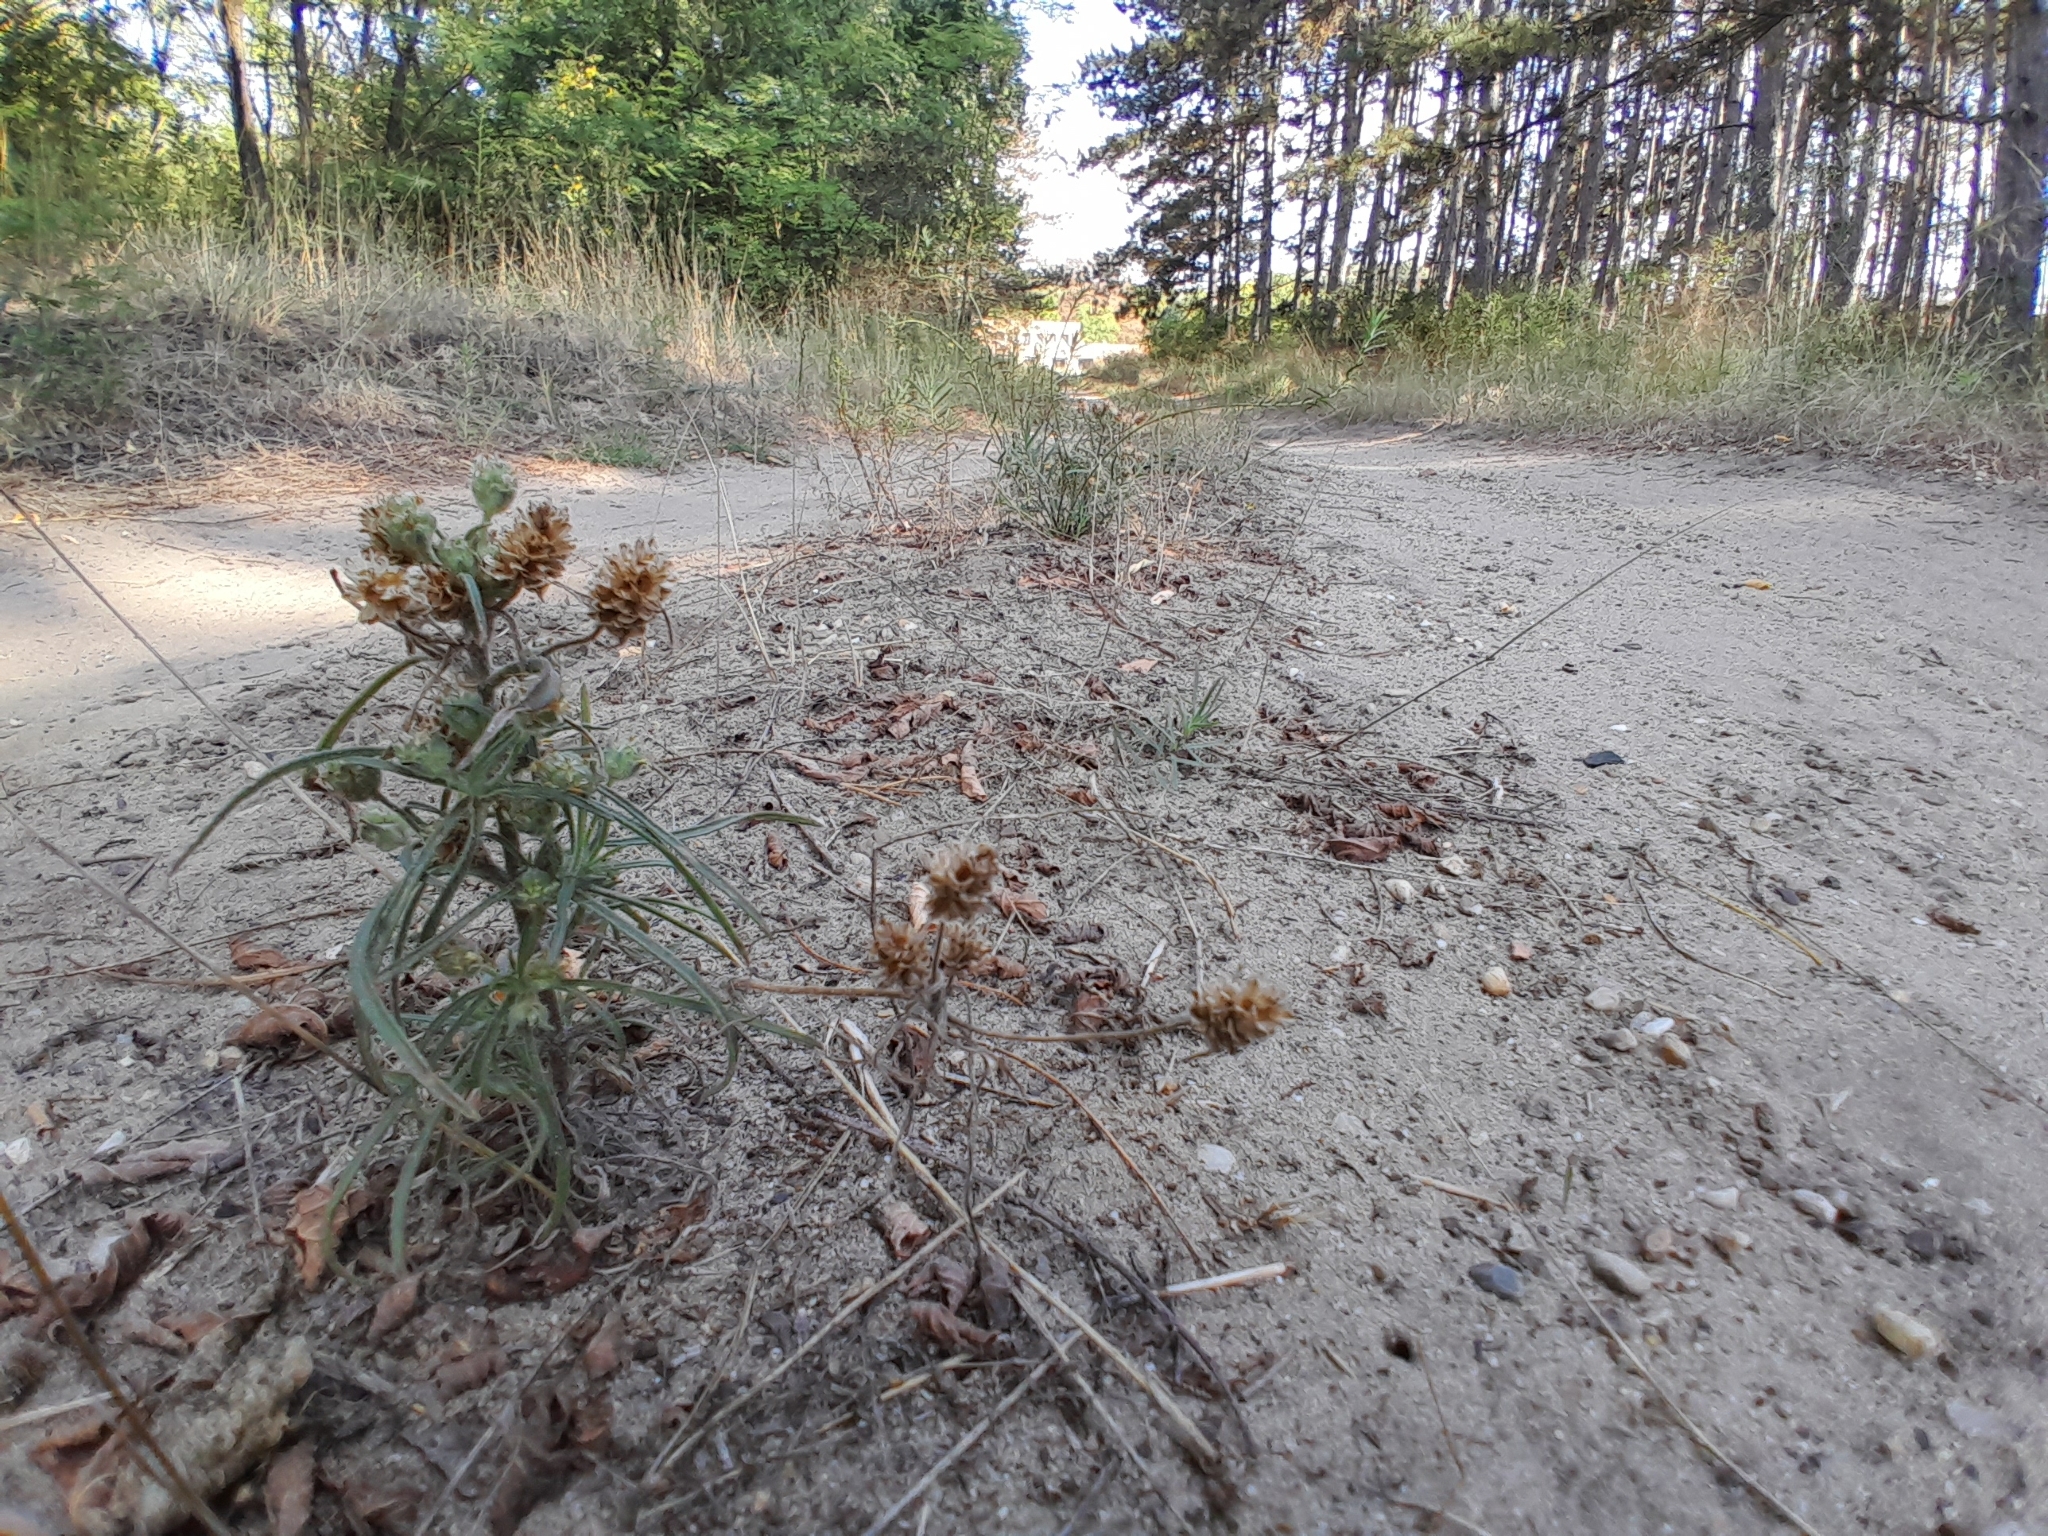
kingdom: Plantae
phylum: Tracheophyta
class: Magnoliopsida
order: Lamiales
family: Plantaginaceae
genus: Plantago
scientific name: Plantago arenaria
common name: Branched plantain
